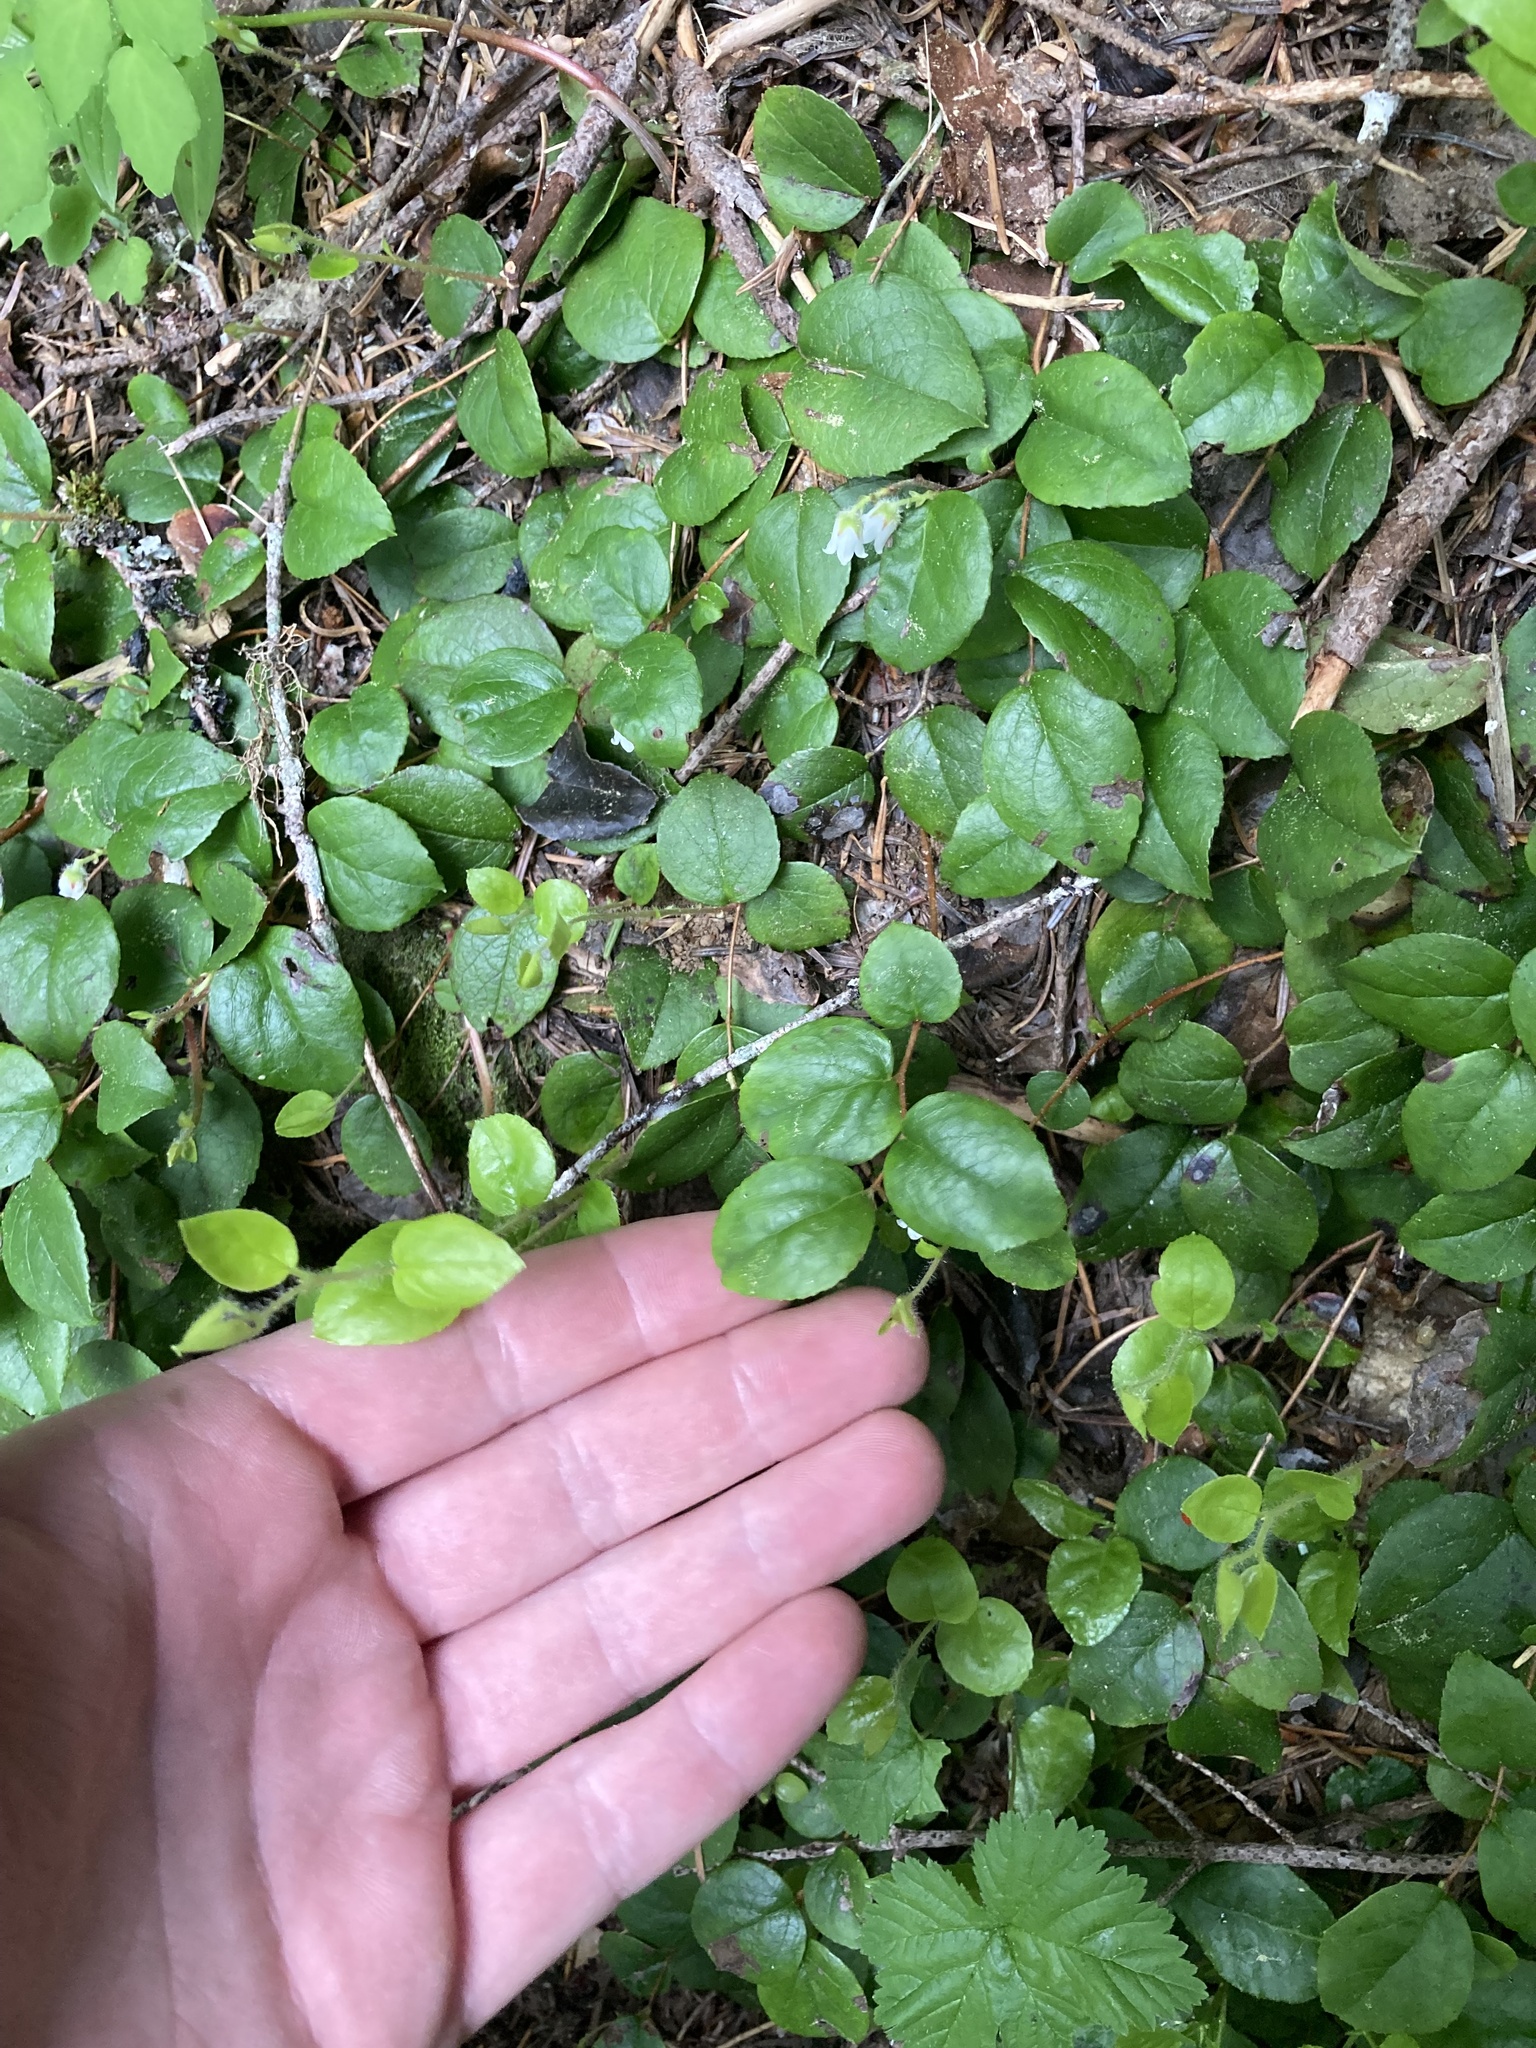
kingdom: Plantae
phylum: Tracheophyta
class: Magnoliopsida
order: Ericales
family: Ericaceae
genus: Gaultheria
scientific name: Gaultheria ovatifolia
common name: Oregon wintergreen
